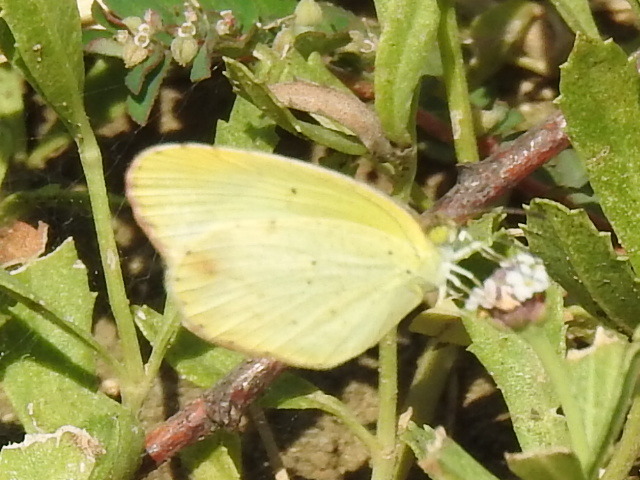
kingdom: Animalia
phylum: Arthropoda
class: Insecta
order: Lepidoptera
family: Pieridae
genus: Pyrisitia
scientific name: Pyrisitia lisa
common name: Little yellow
